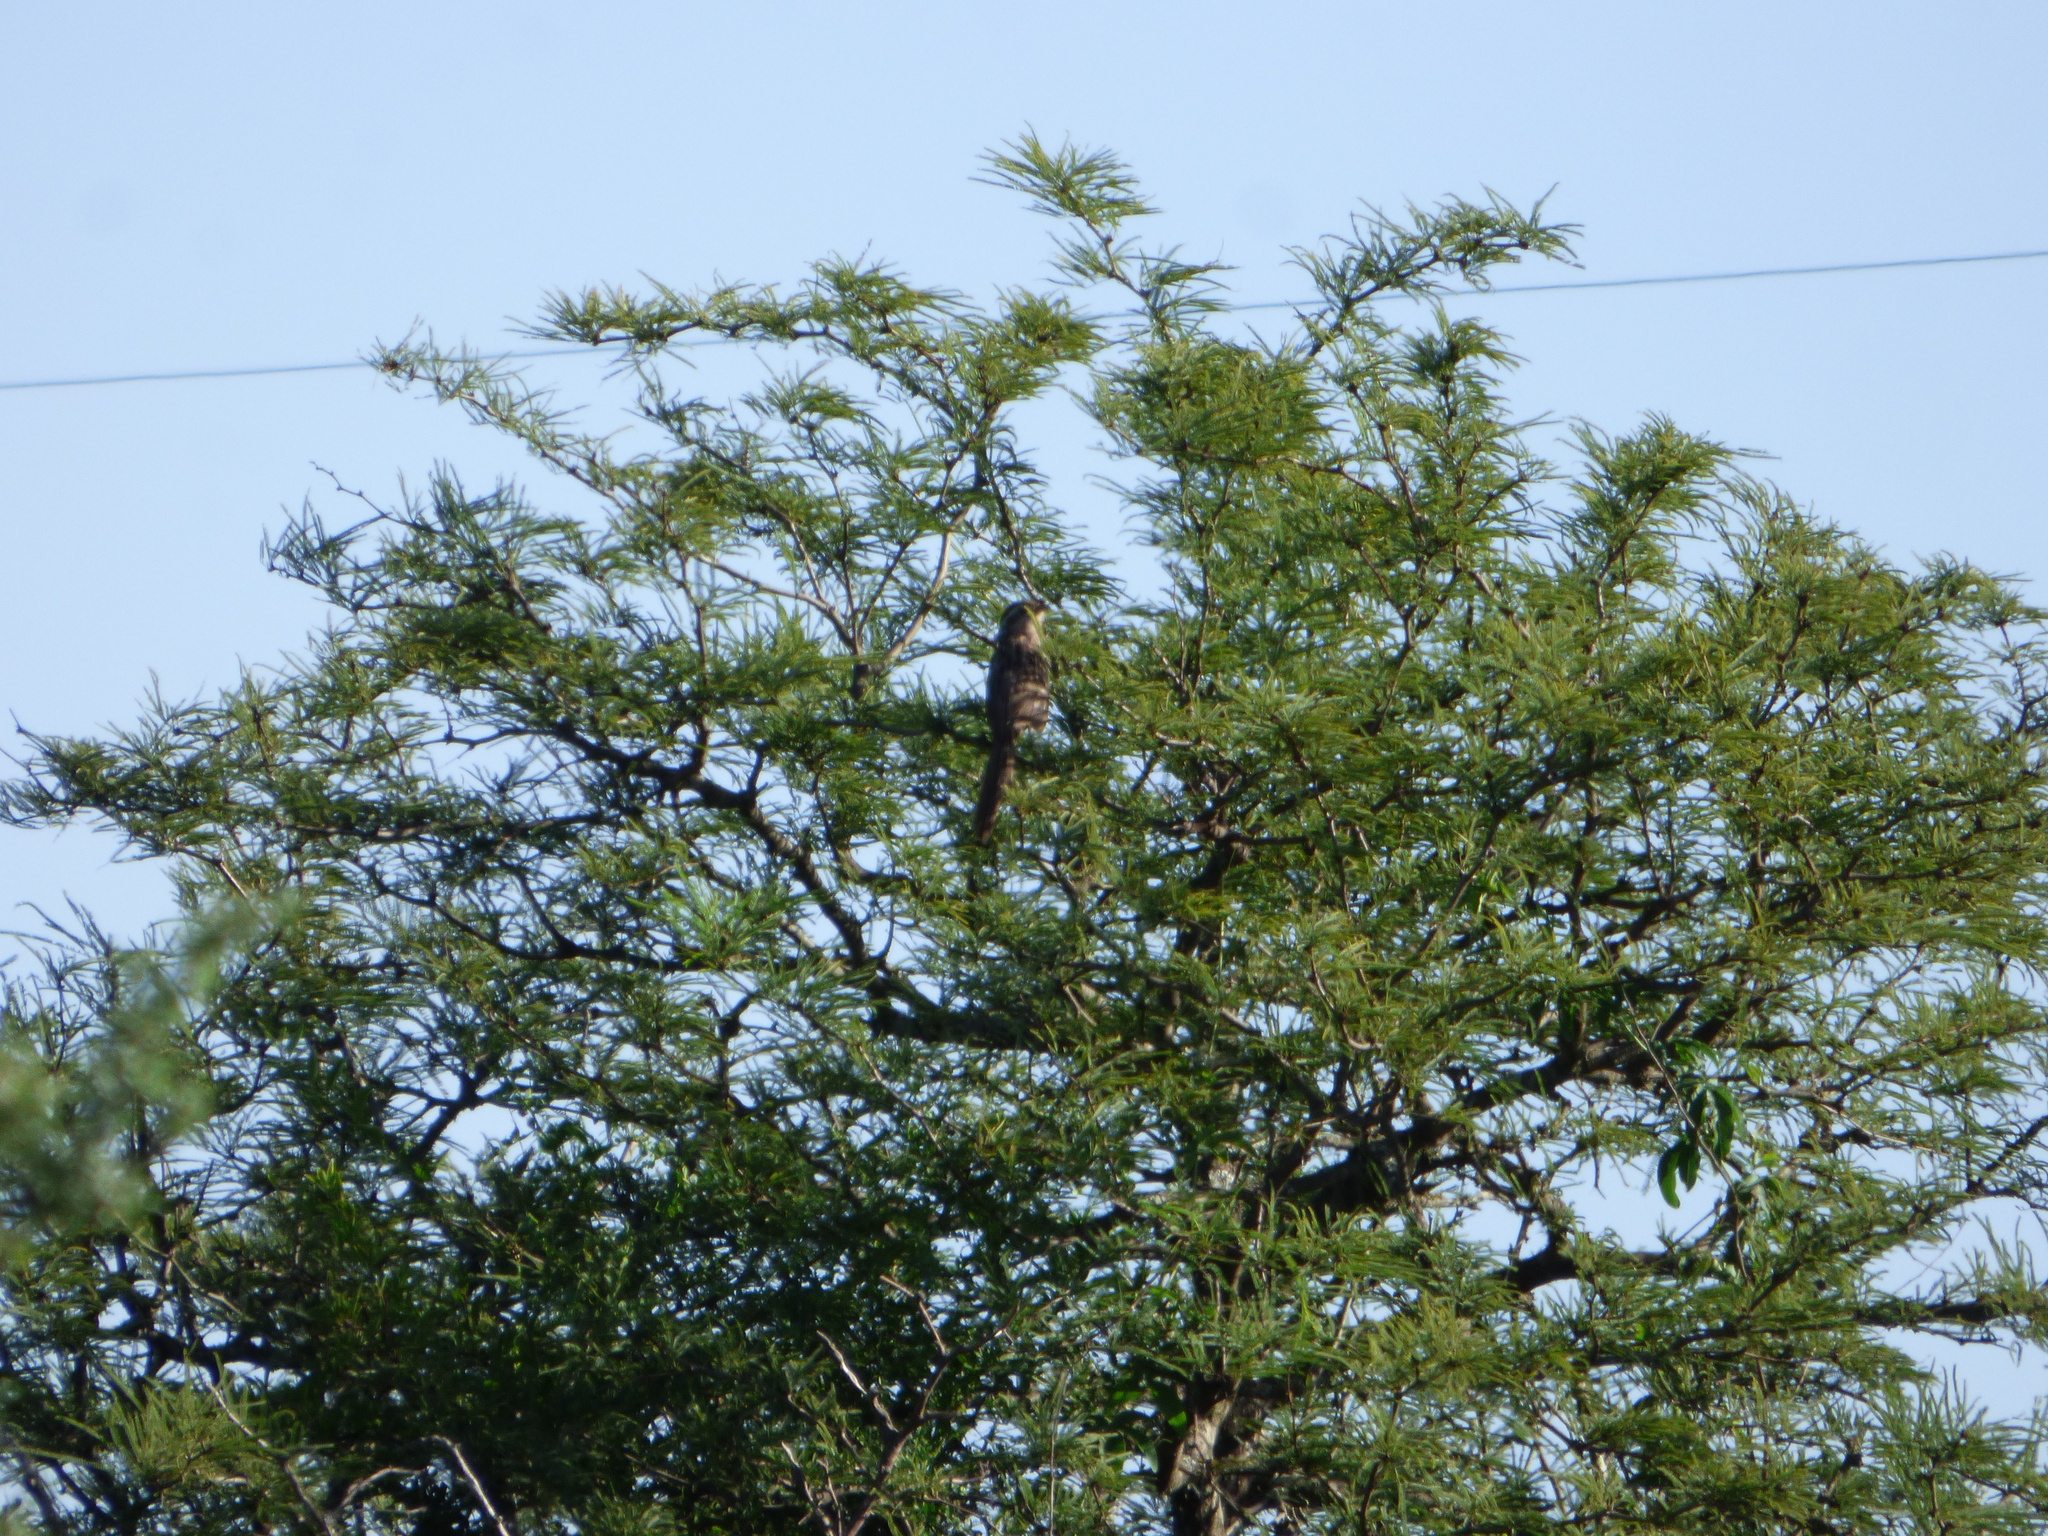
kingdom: Animalia
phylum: Chordata
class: Aves
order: Cuculiformes
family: Cuculidae
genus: Tapera
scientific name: Tapera naevia
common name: Striped cuckoo
